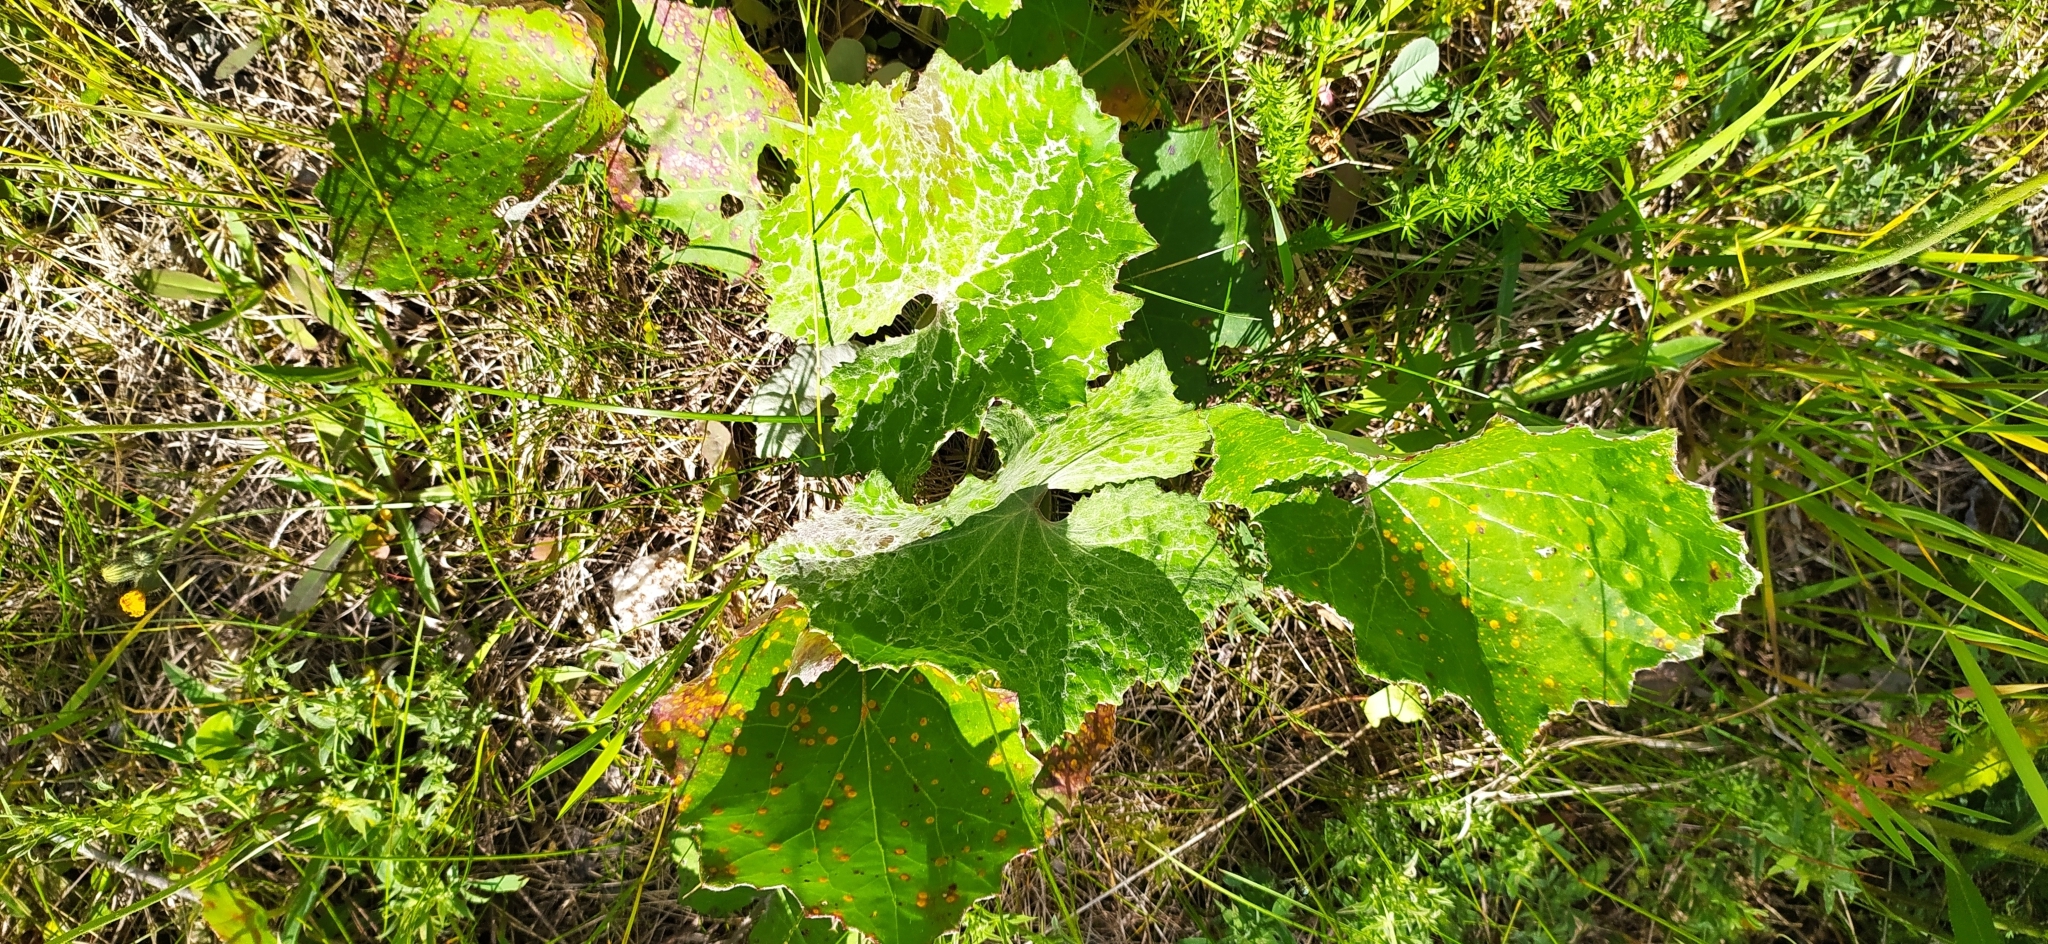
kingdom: Plantae
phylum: Tracheophyta
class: Magnoliopsida
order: Asterales
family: Asteraceae
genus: Tussilago
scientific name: Tussilago farfara
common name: Coltsfoot
